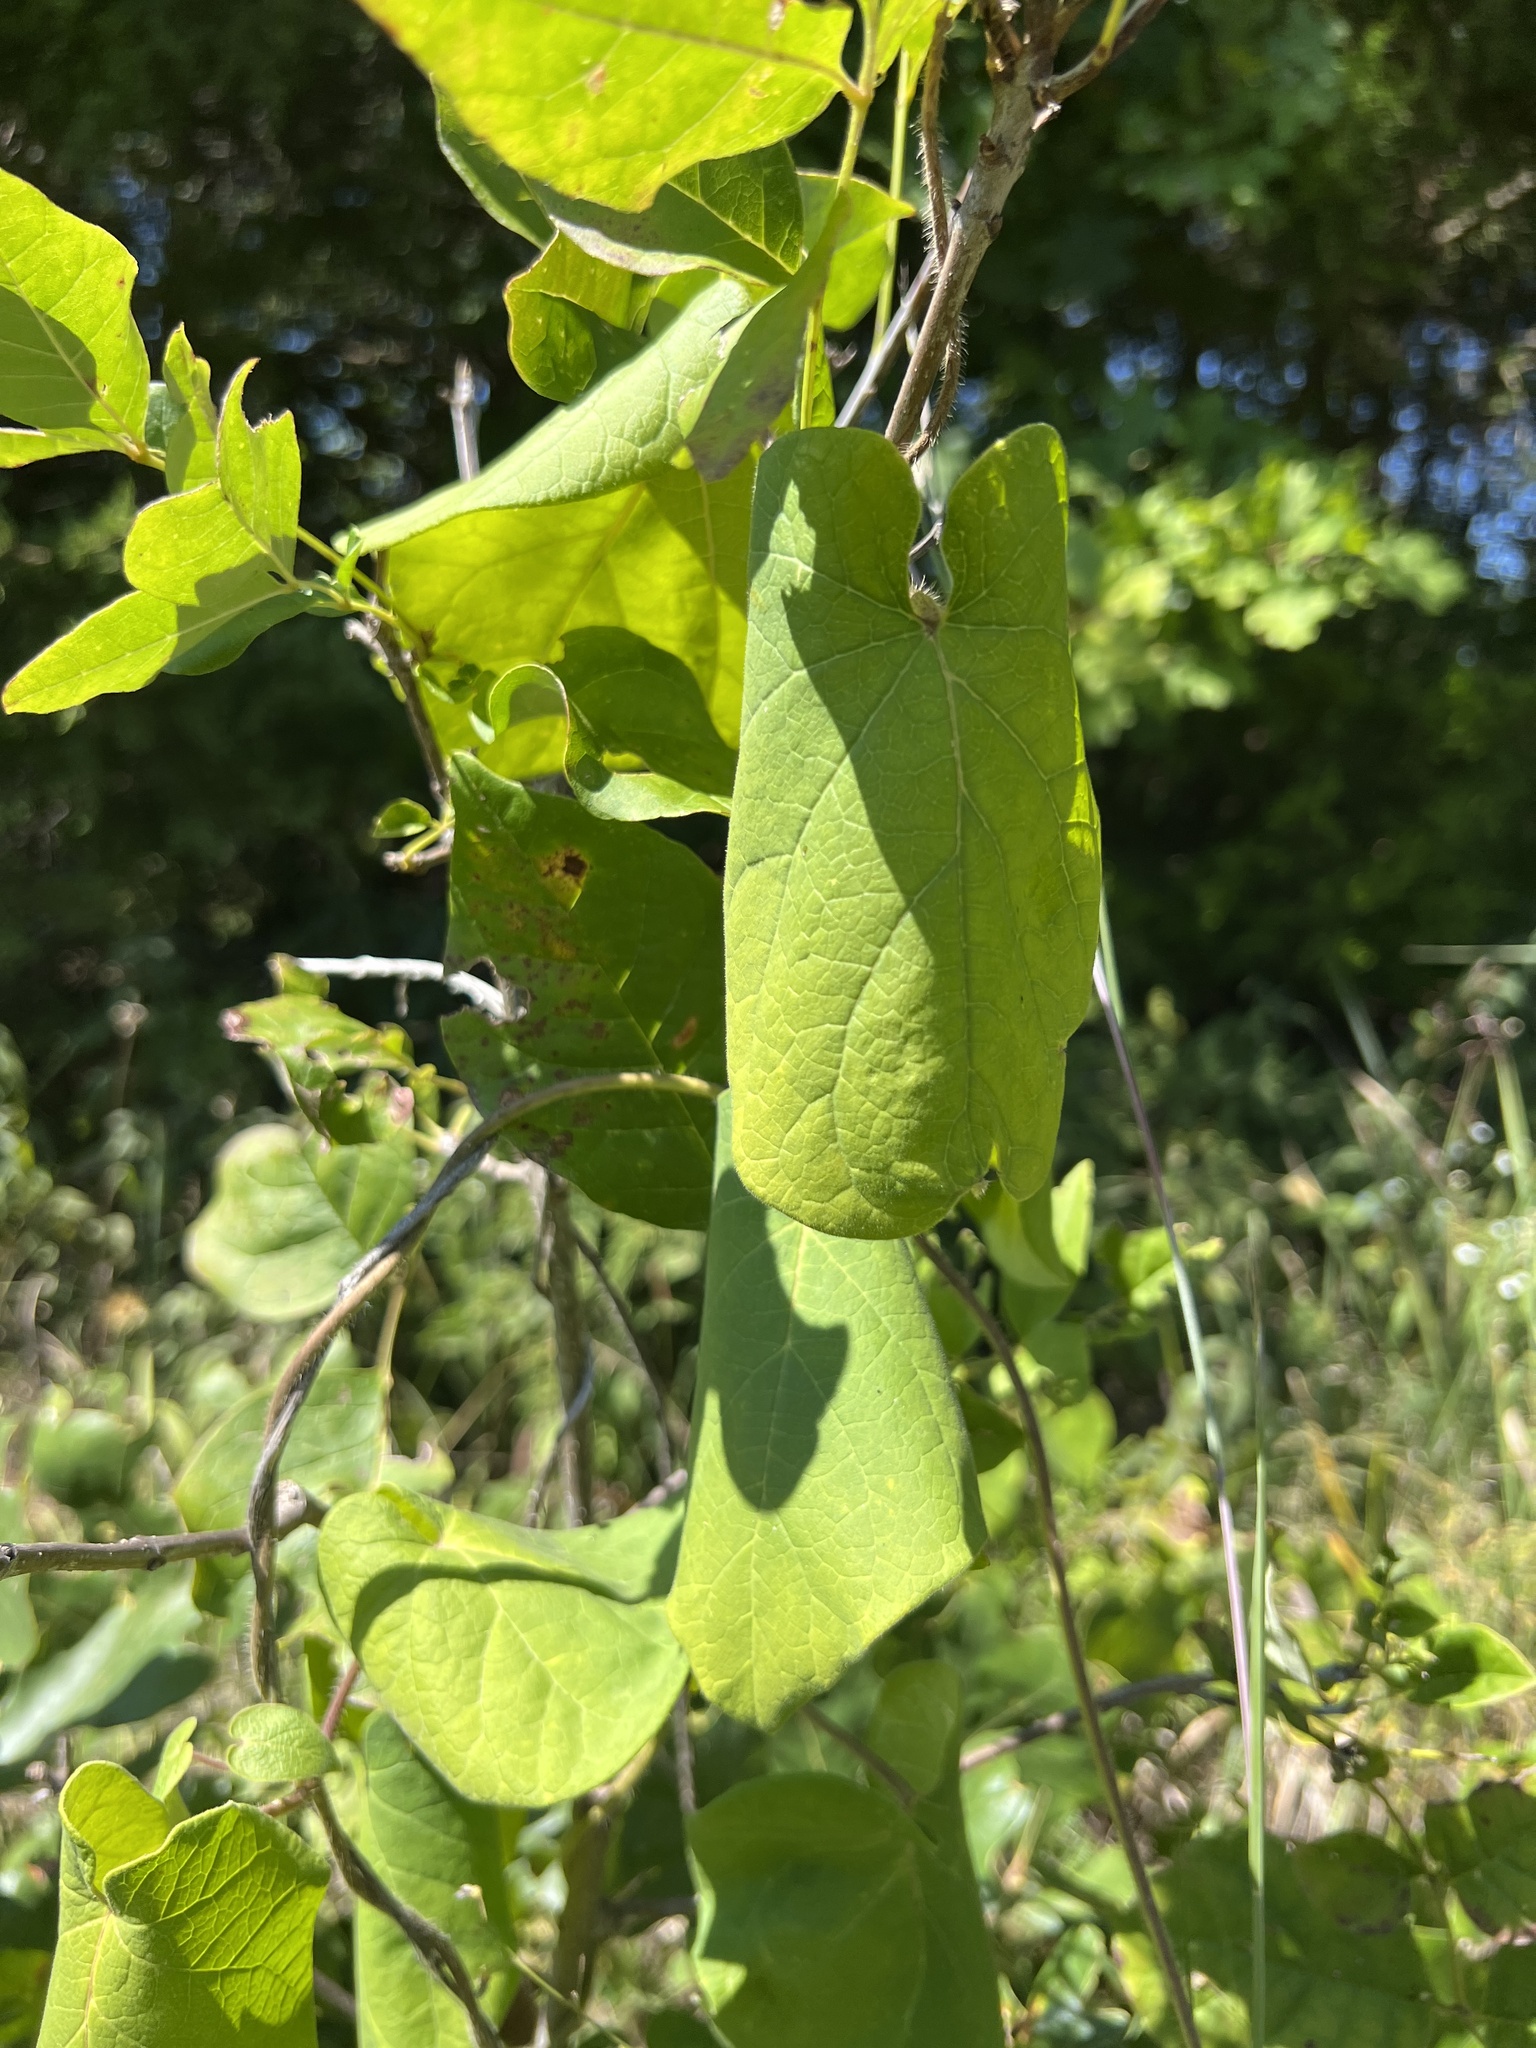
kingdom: Plantae
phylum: Tracheophyta
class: Magnoliopsida
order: Gentianales
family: Apocynaceae
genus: Matelea
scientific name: Matelea decipiens
